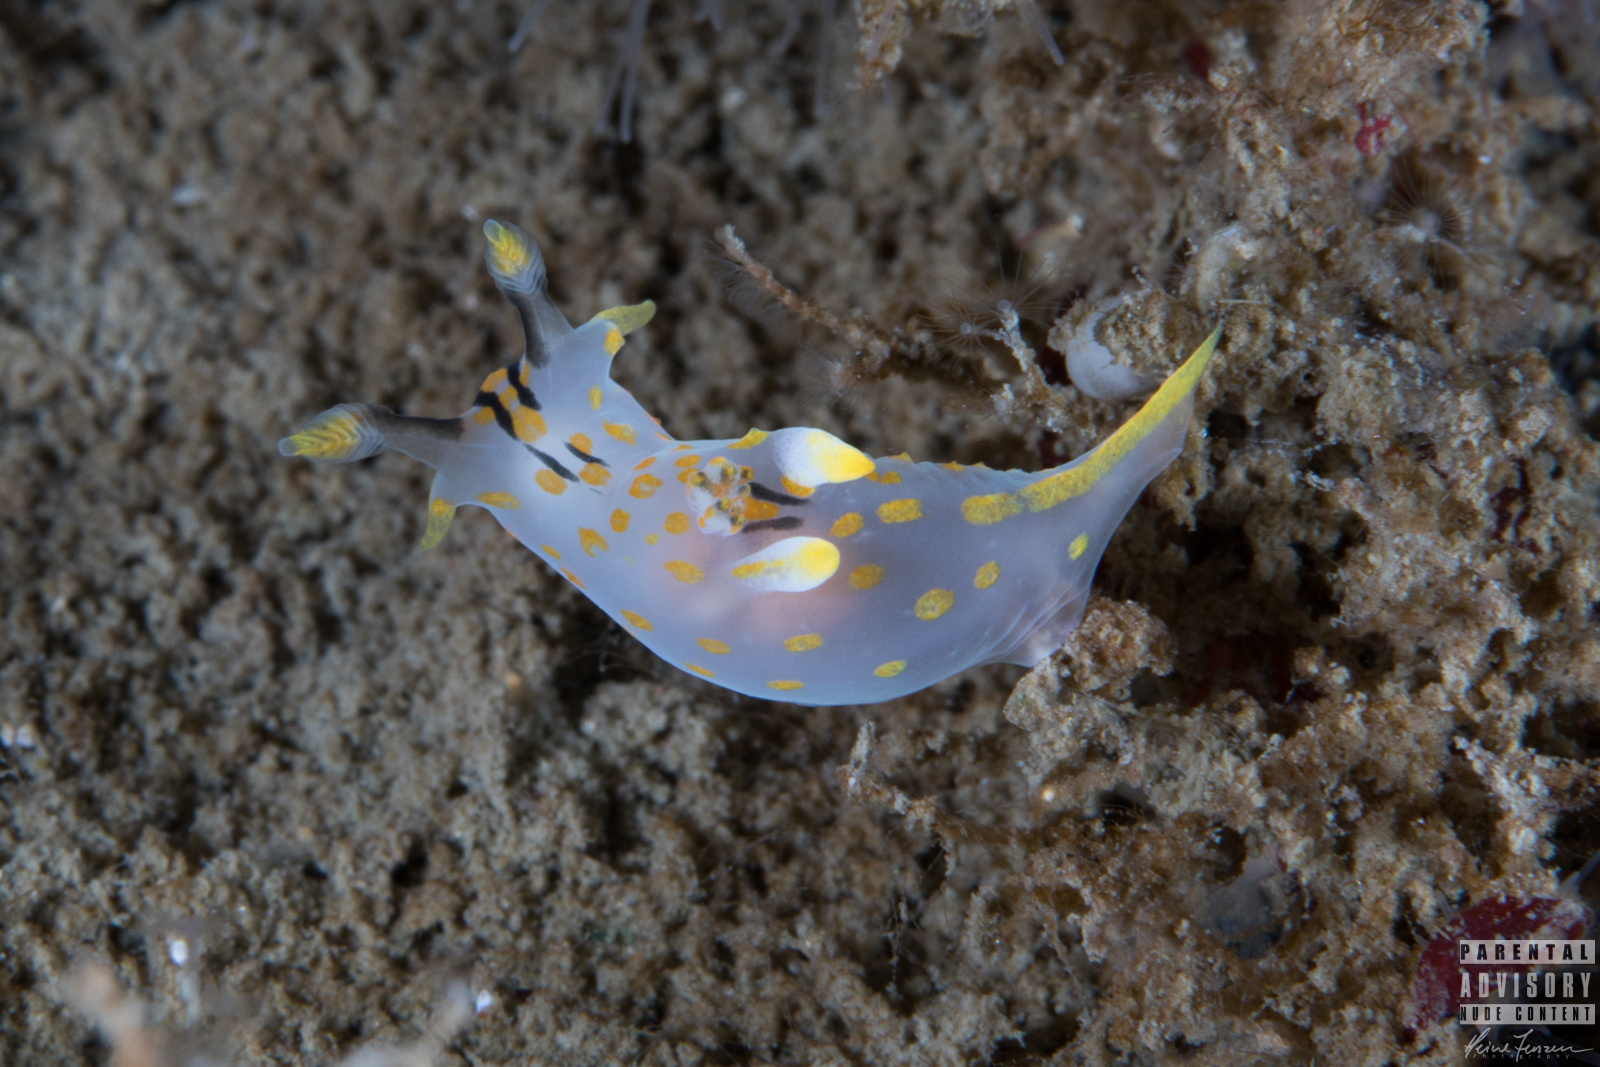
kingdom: Animalia
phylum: Mollusca
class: Gastropoda
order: Nudibranchia
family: Polyceridae
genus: Polycera
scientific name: Polycera quadrilineata
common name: Four-striped polycera
